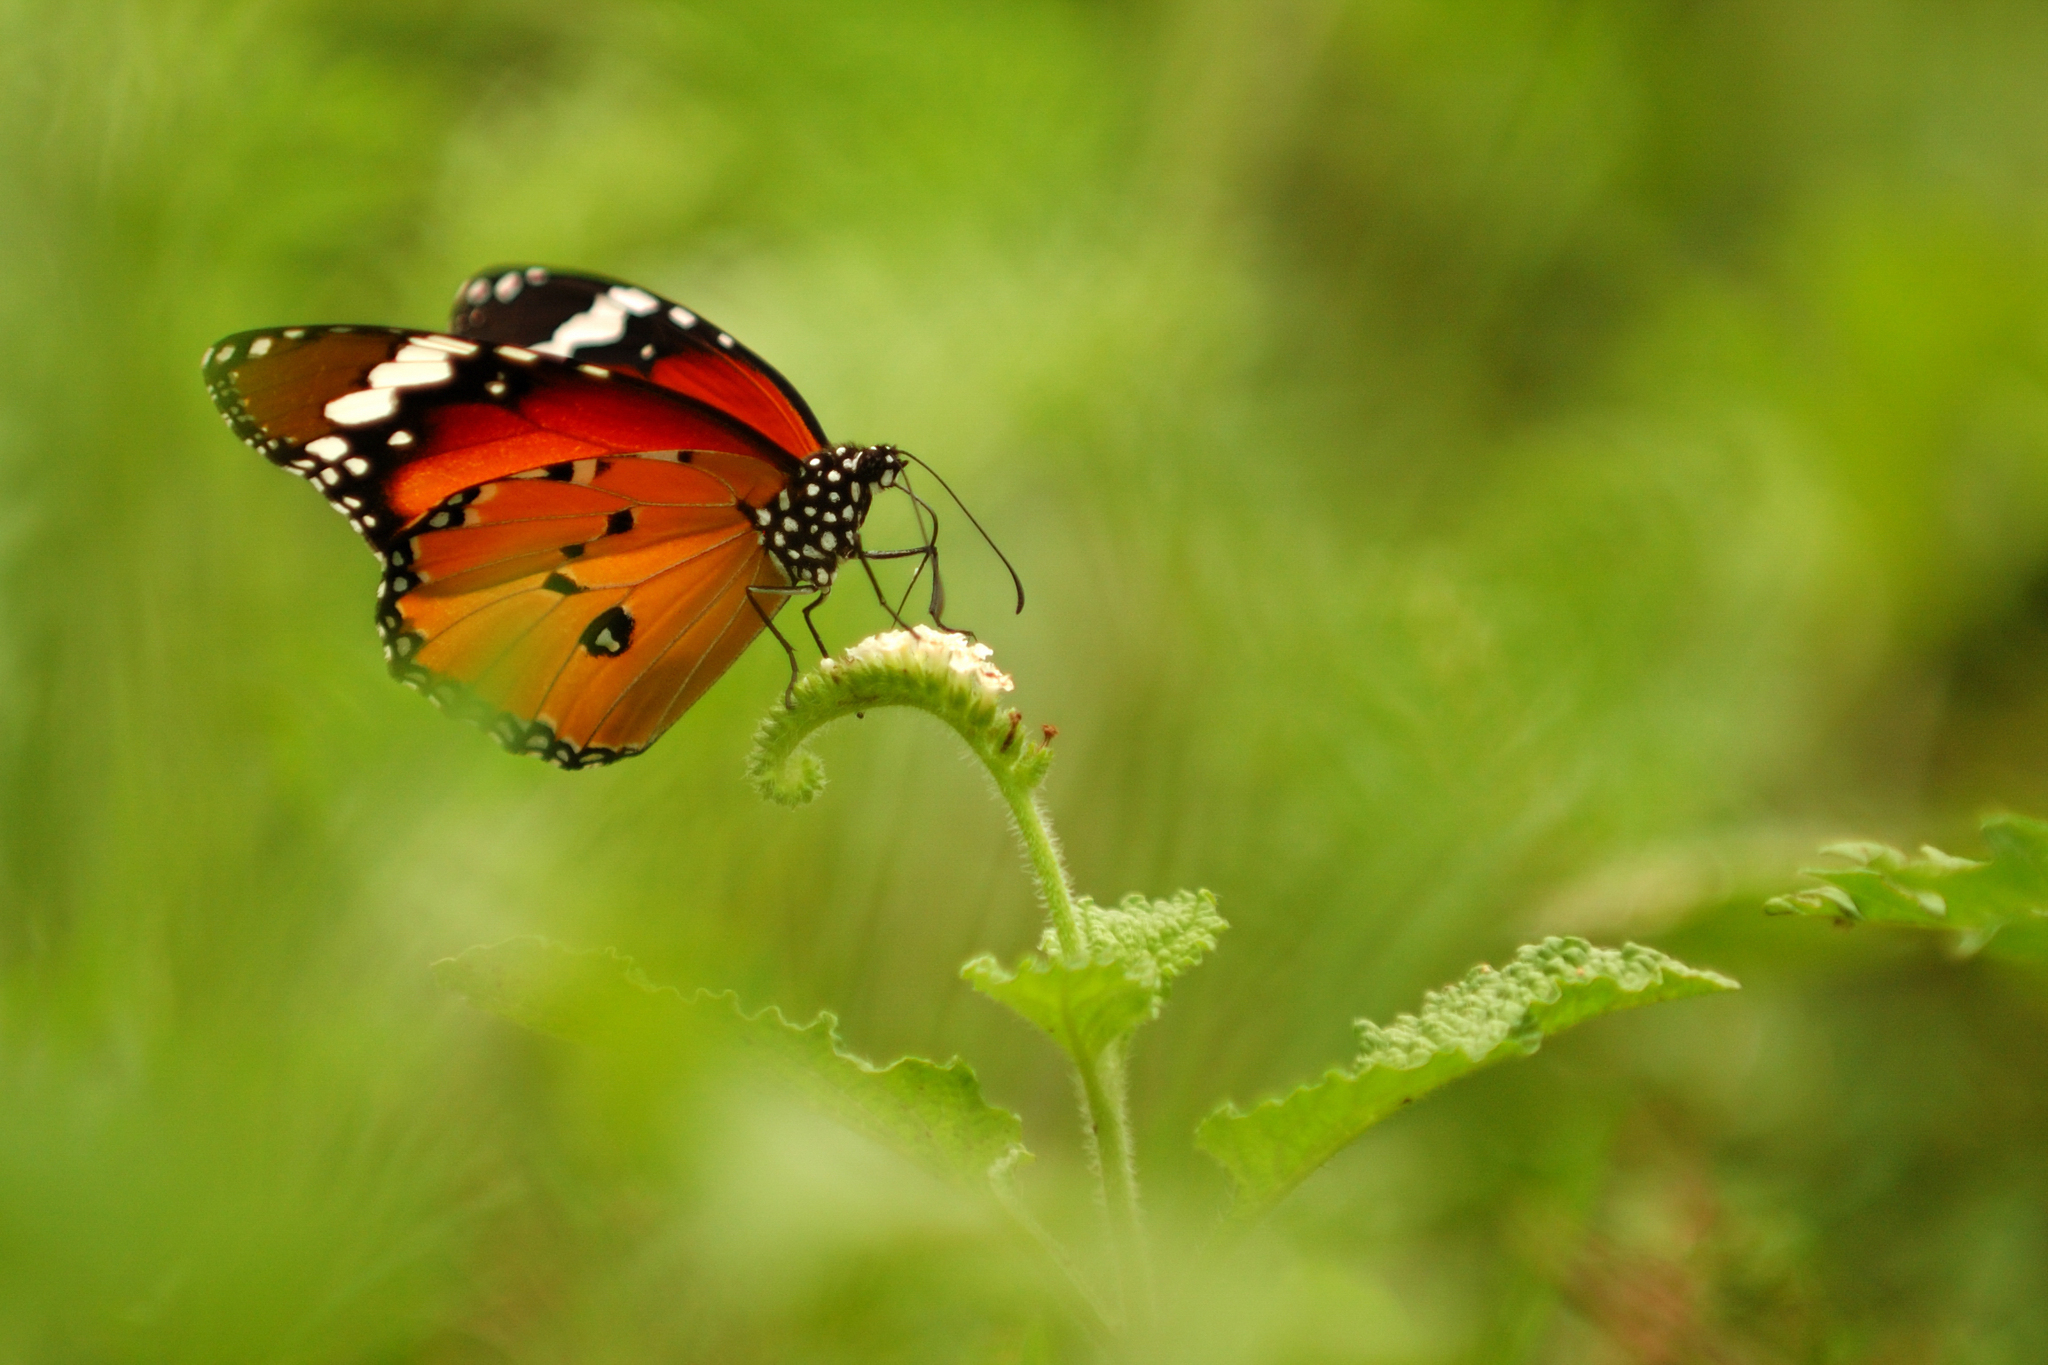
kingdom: Animalia
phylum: Arthropoda
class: Insecta
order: Lepidoptera
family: Nymphalidae
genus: Danaus
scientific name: Danaus chrysippus
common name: Plain tiger
